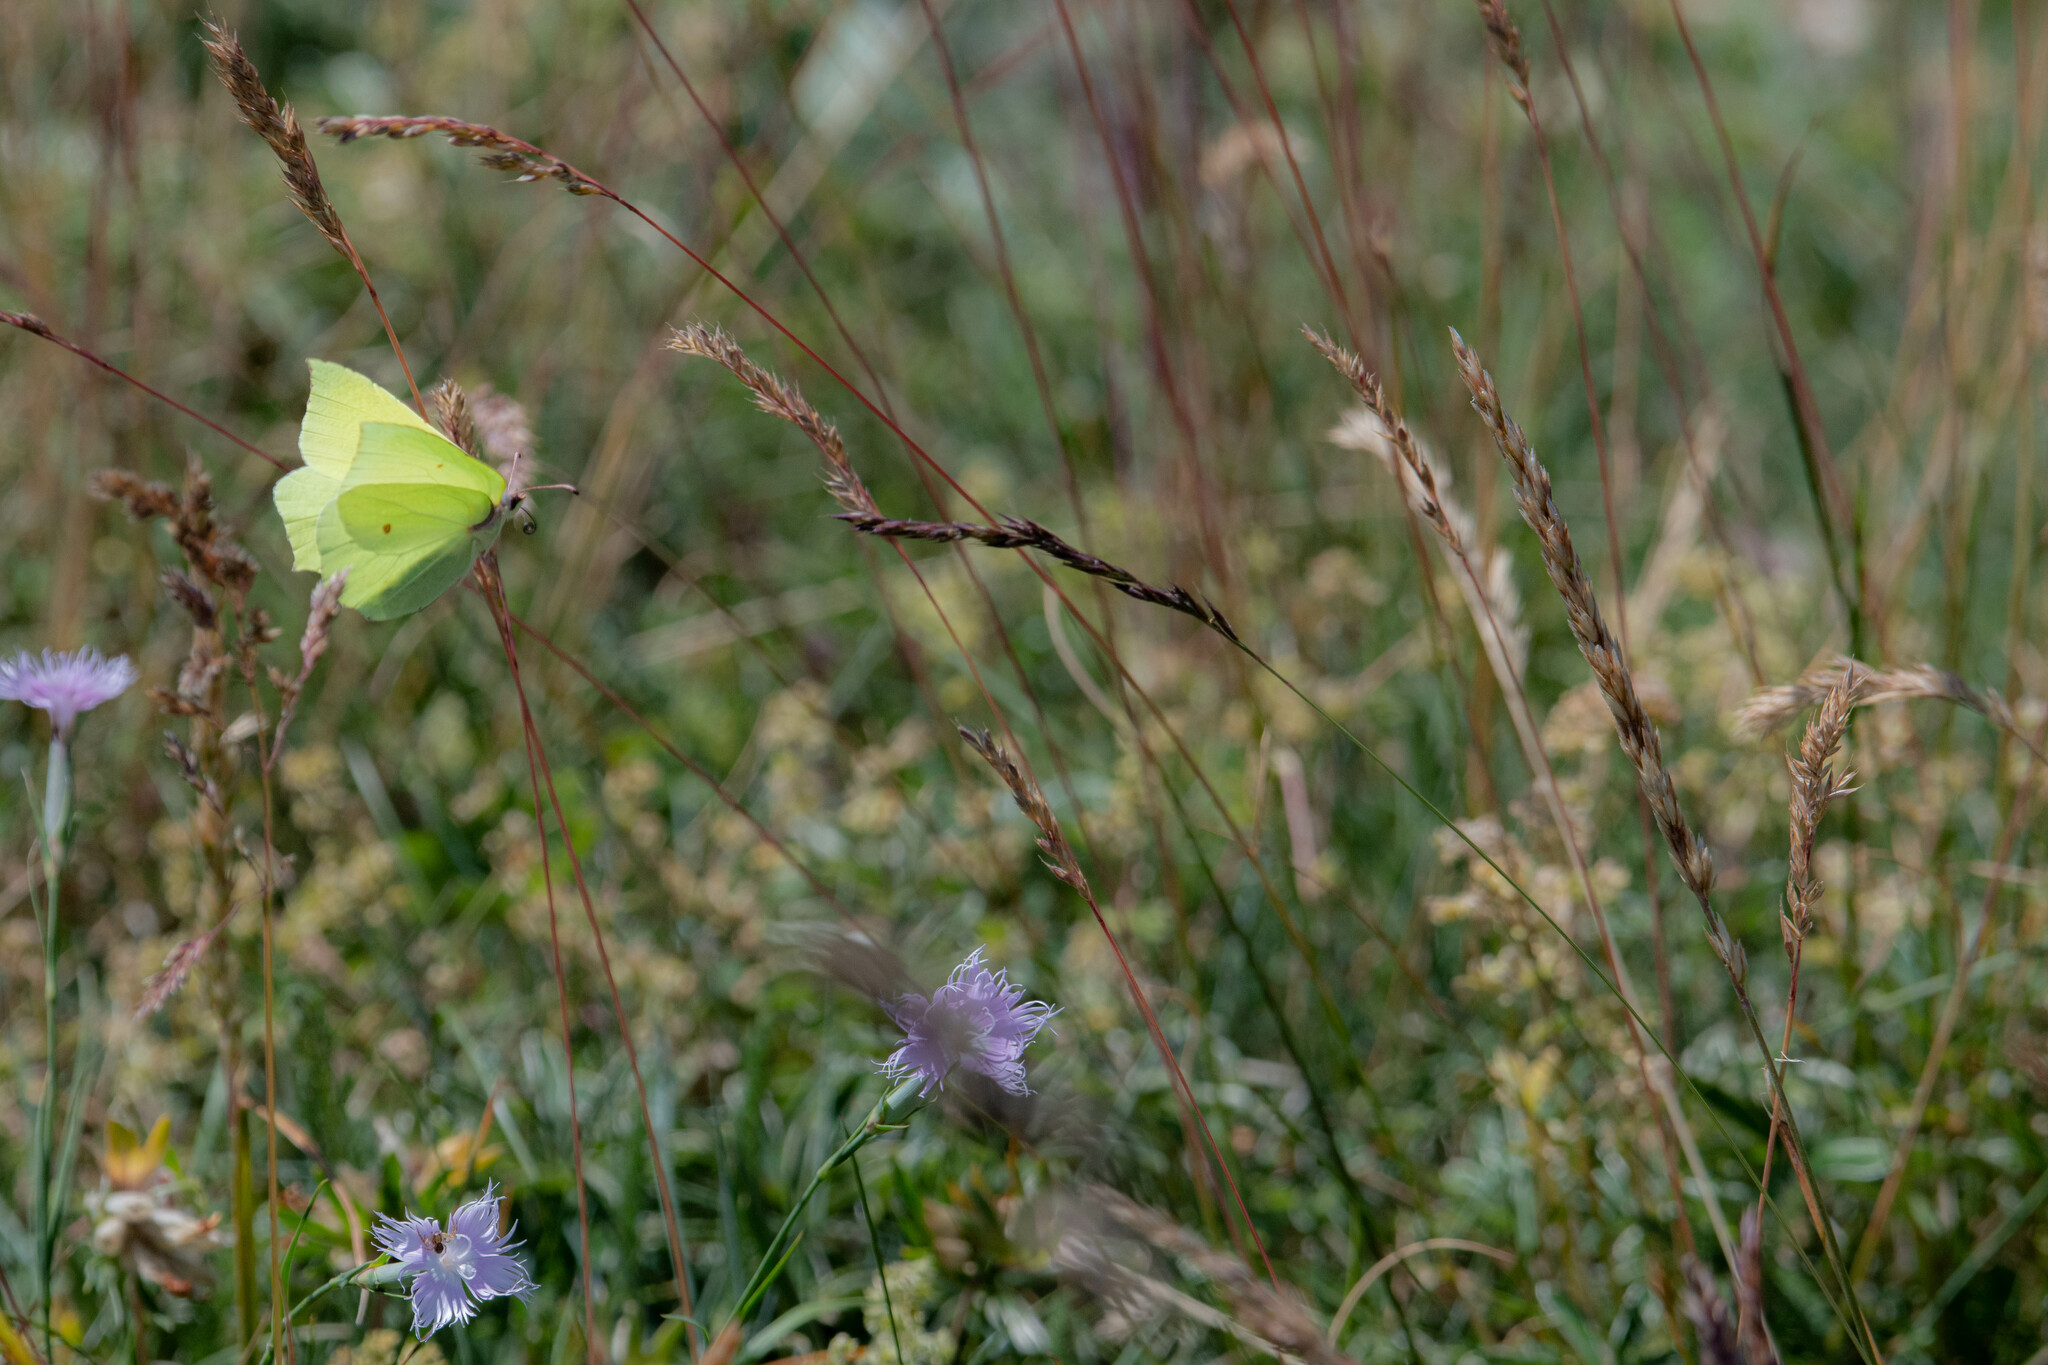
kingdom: Animalia
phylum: Arthropoda
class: Insecta
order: Lepidoptera
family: Pieridae
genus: Gonepteryx
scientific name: Gonepteryx rhamni
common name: Brimstone
